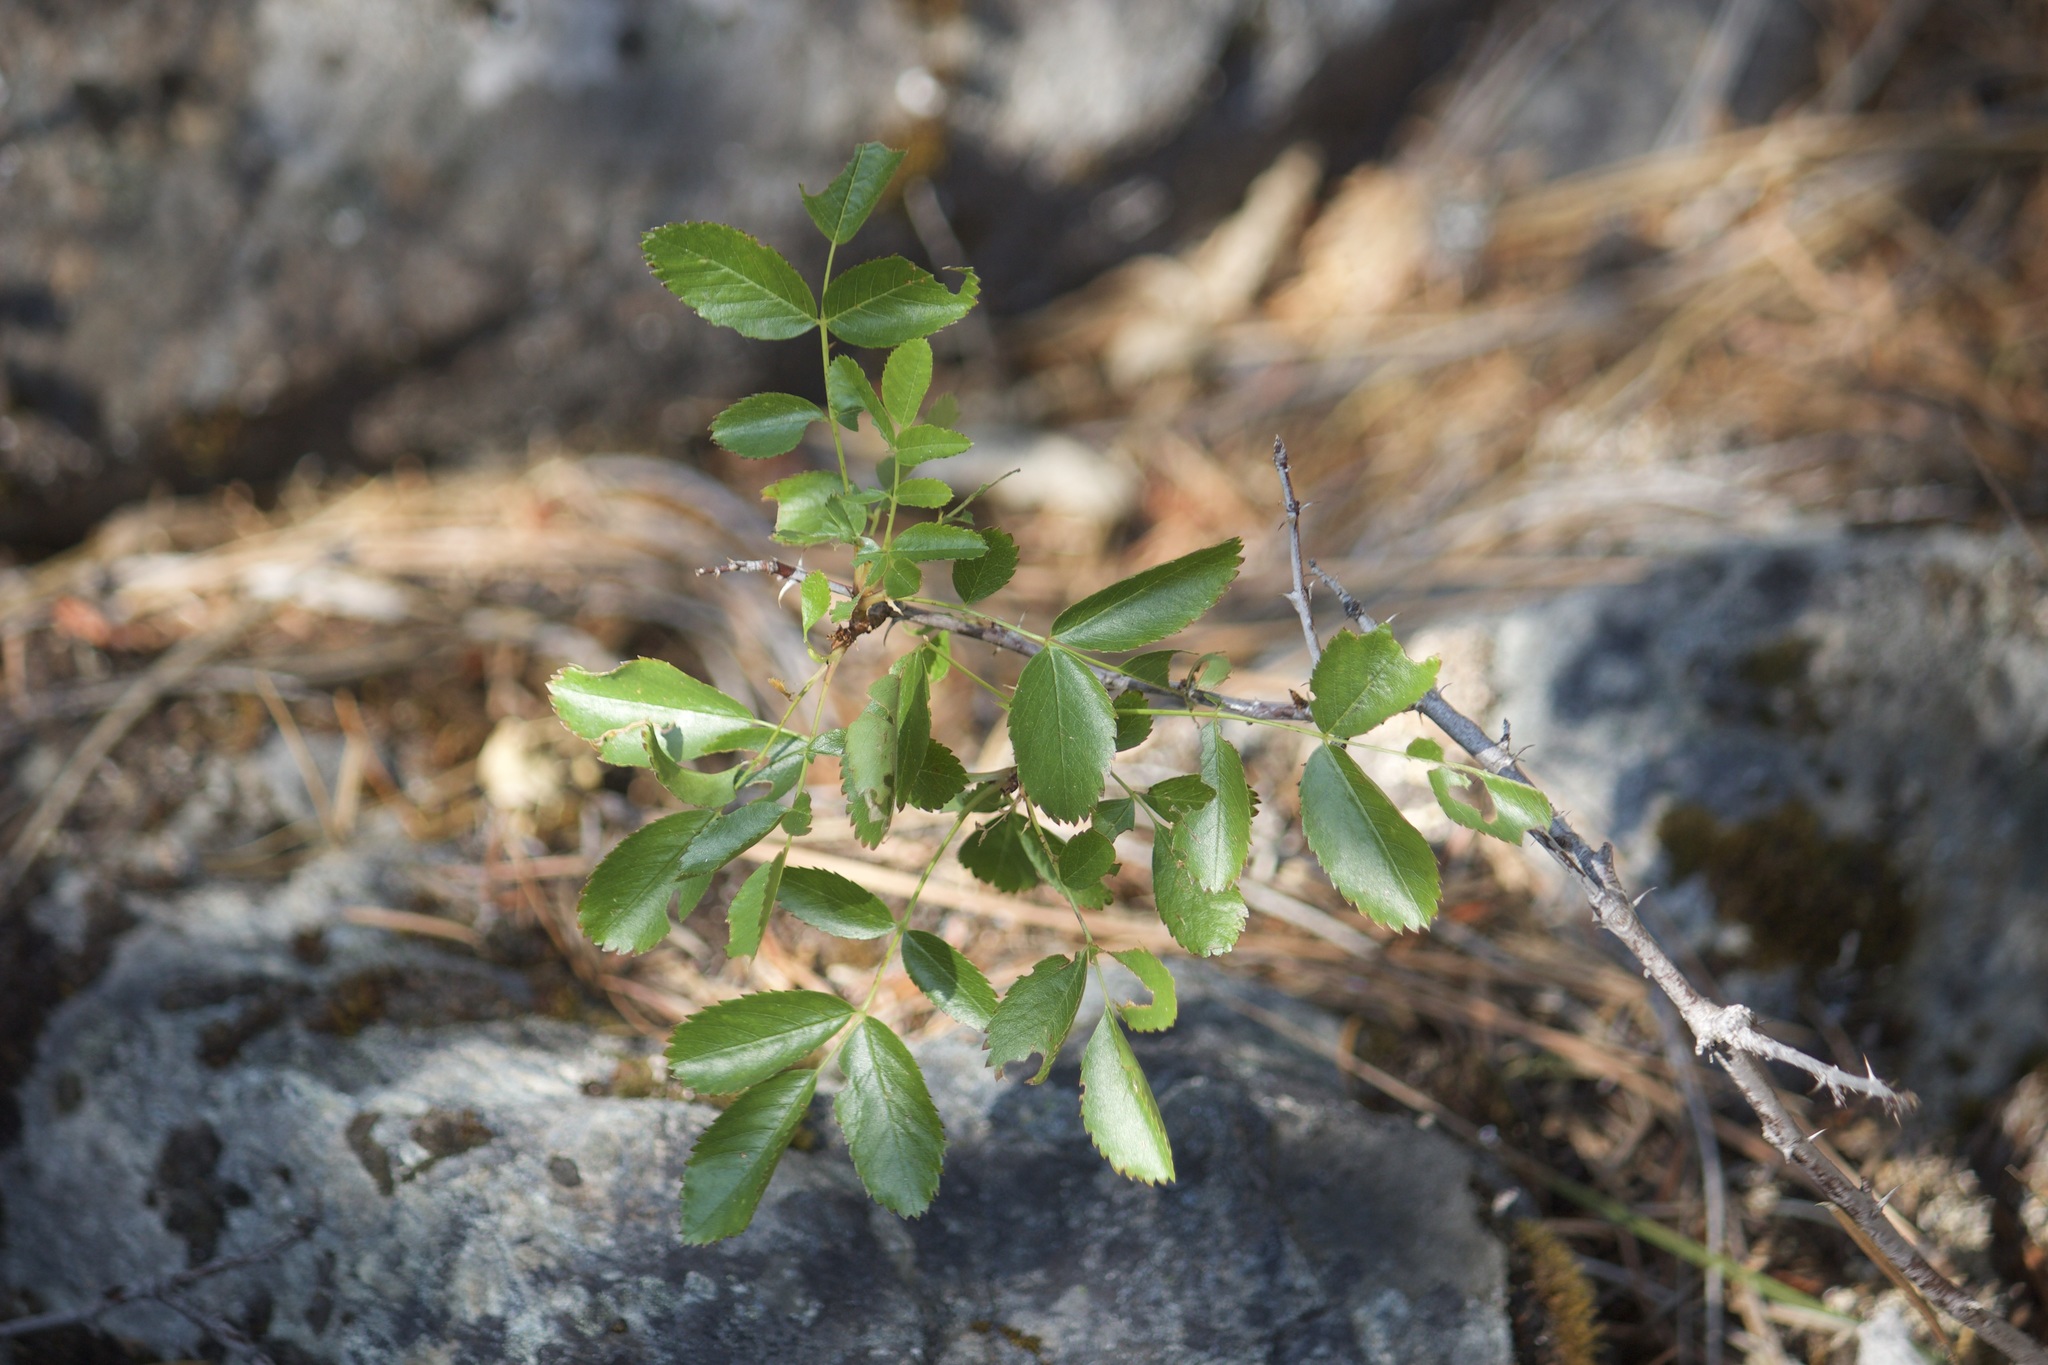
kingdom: Plantae
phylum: Tracheophyta
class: Magnoliopsida
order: Dipsacales
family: Viburnaceae
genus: Sambucus
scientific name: Sambucus cerulea
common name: Blue elder
